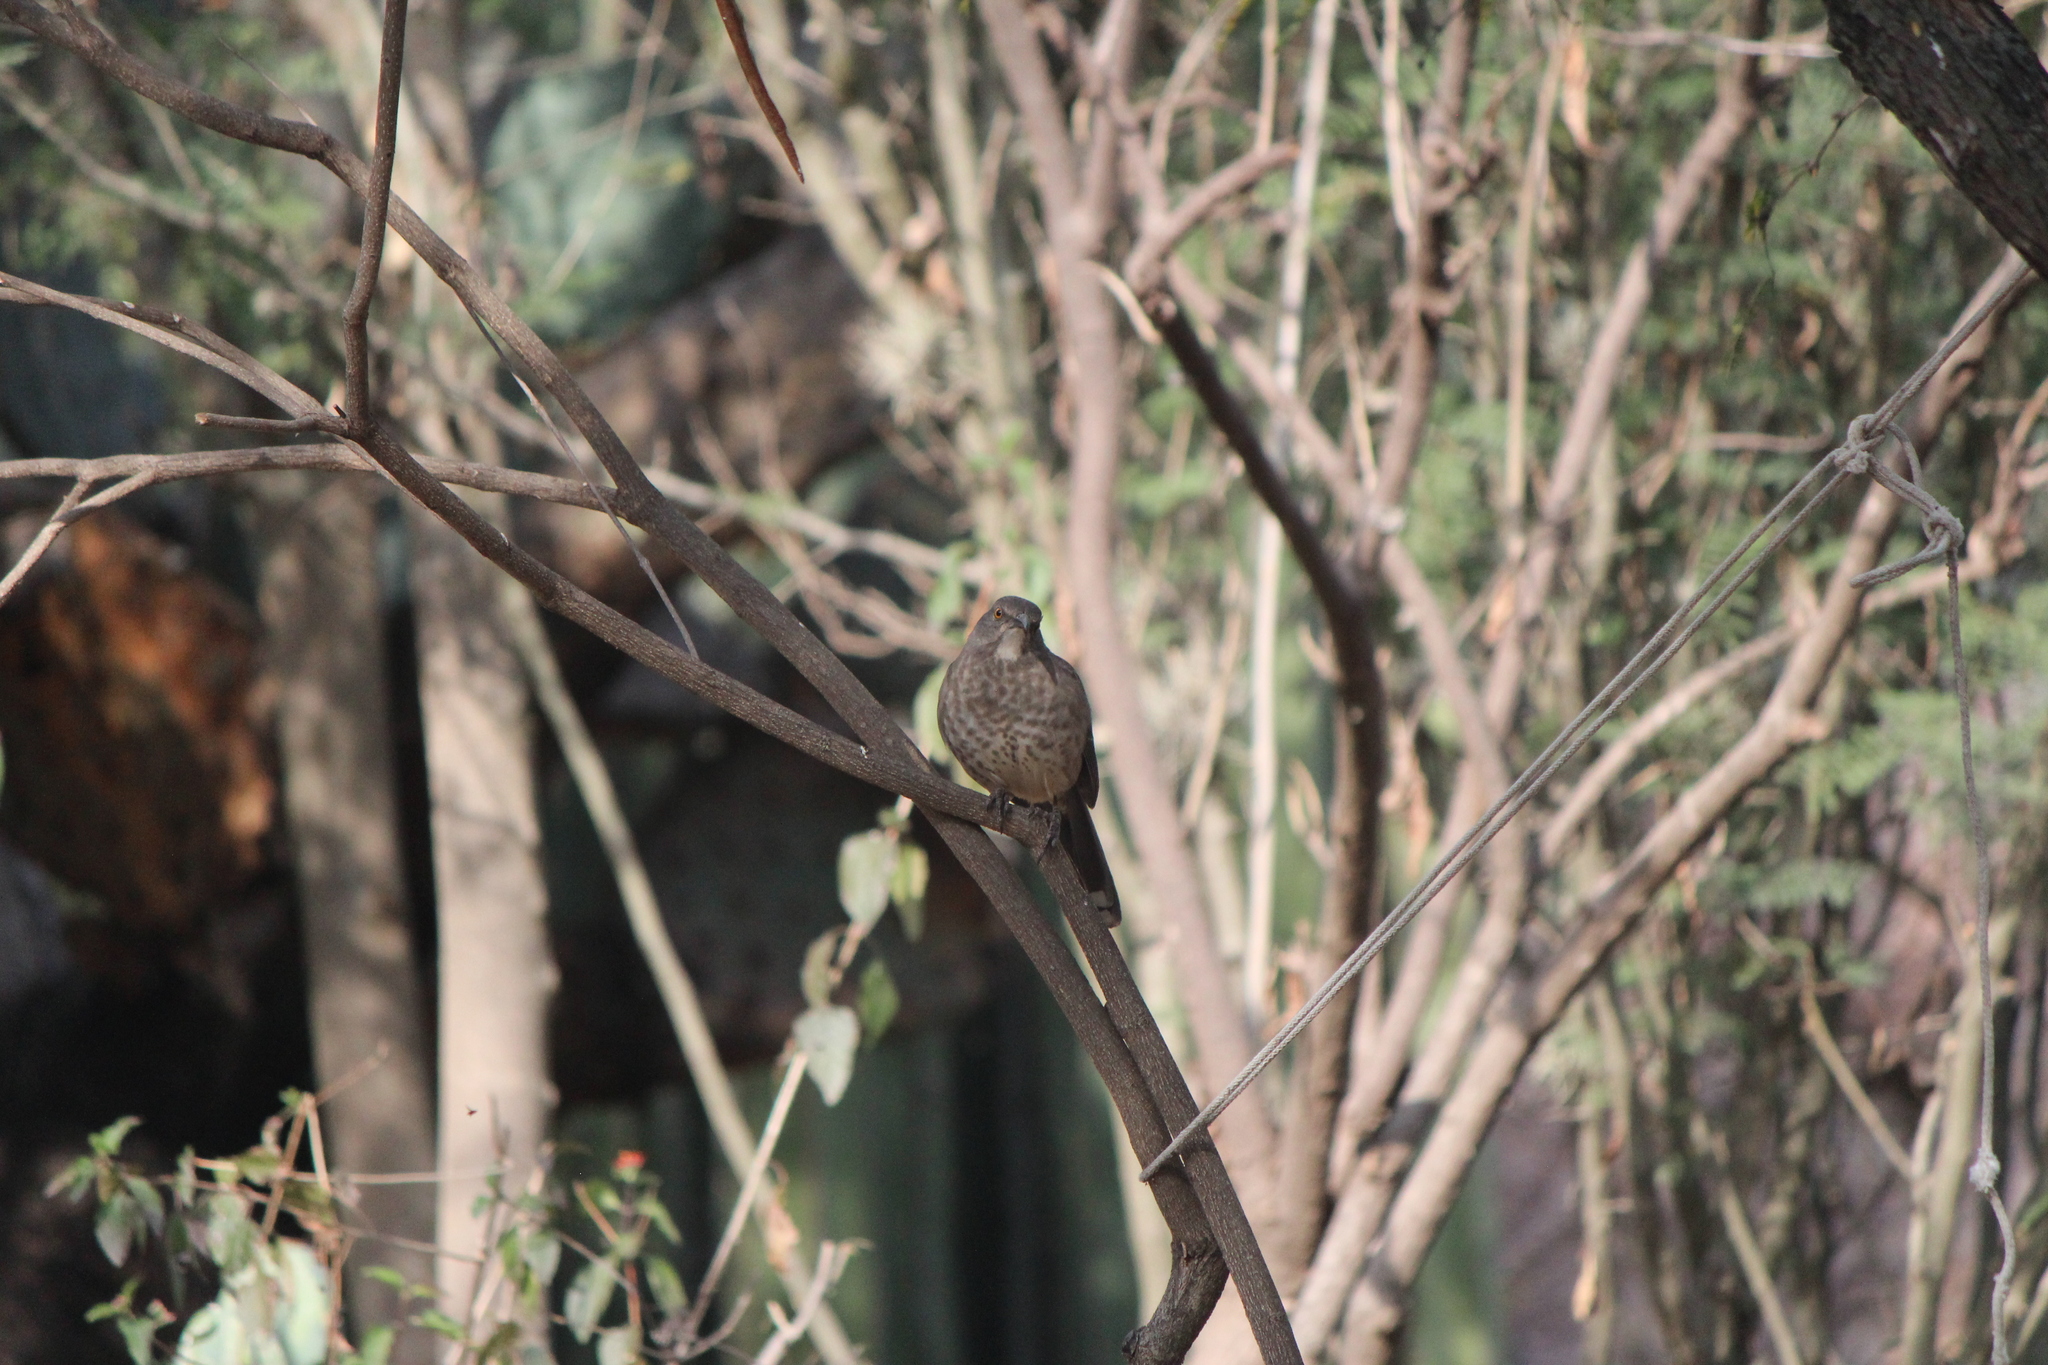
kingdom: Animalia
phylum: Chordata
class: Aves
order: Passeriformes
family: Mimidae
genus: Toxostoma
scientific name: Toxostoma curvirostre
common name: Curve-billed thrasher
